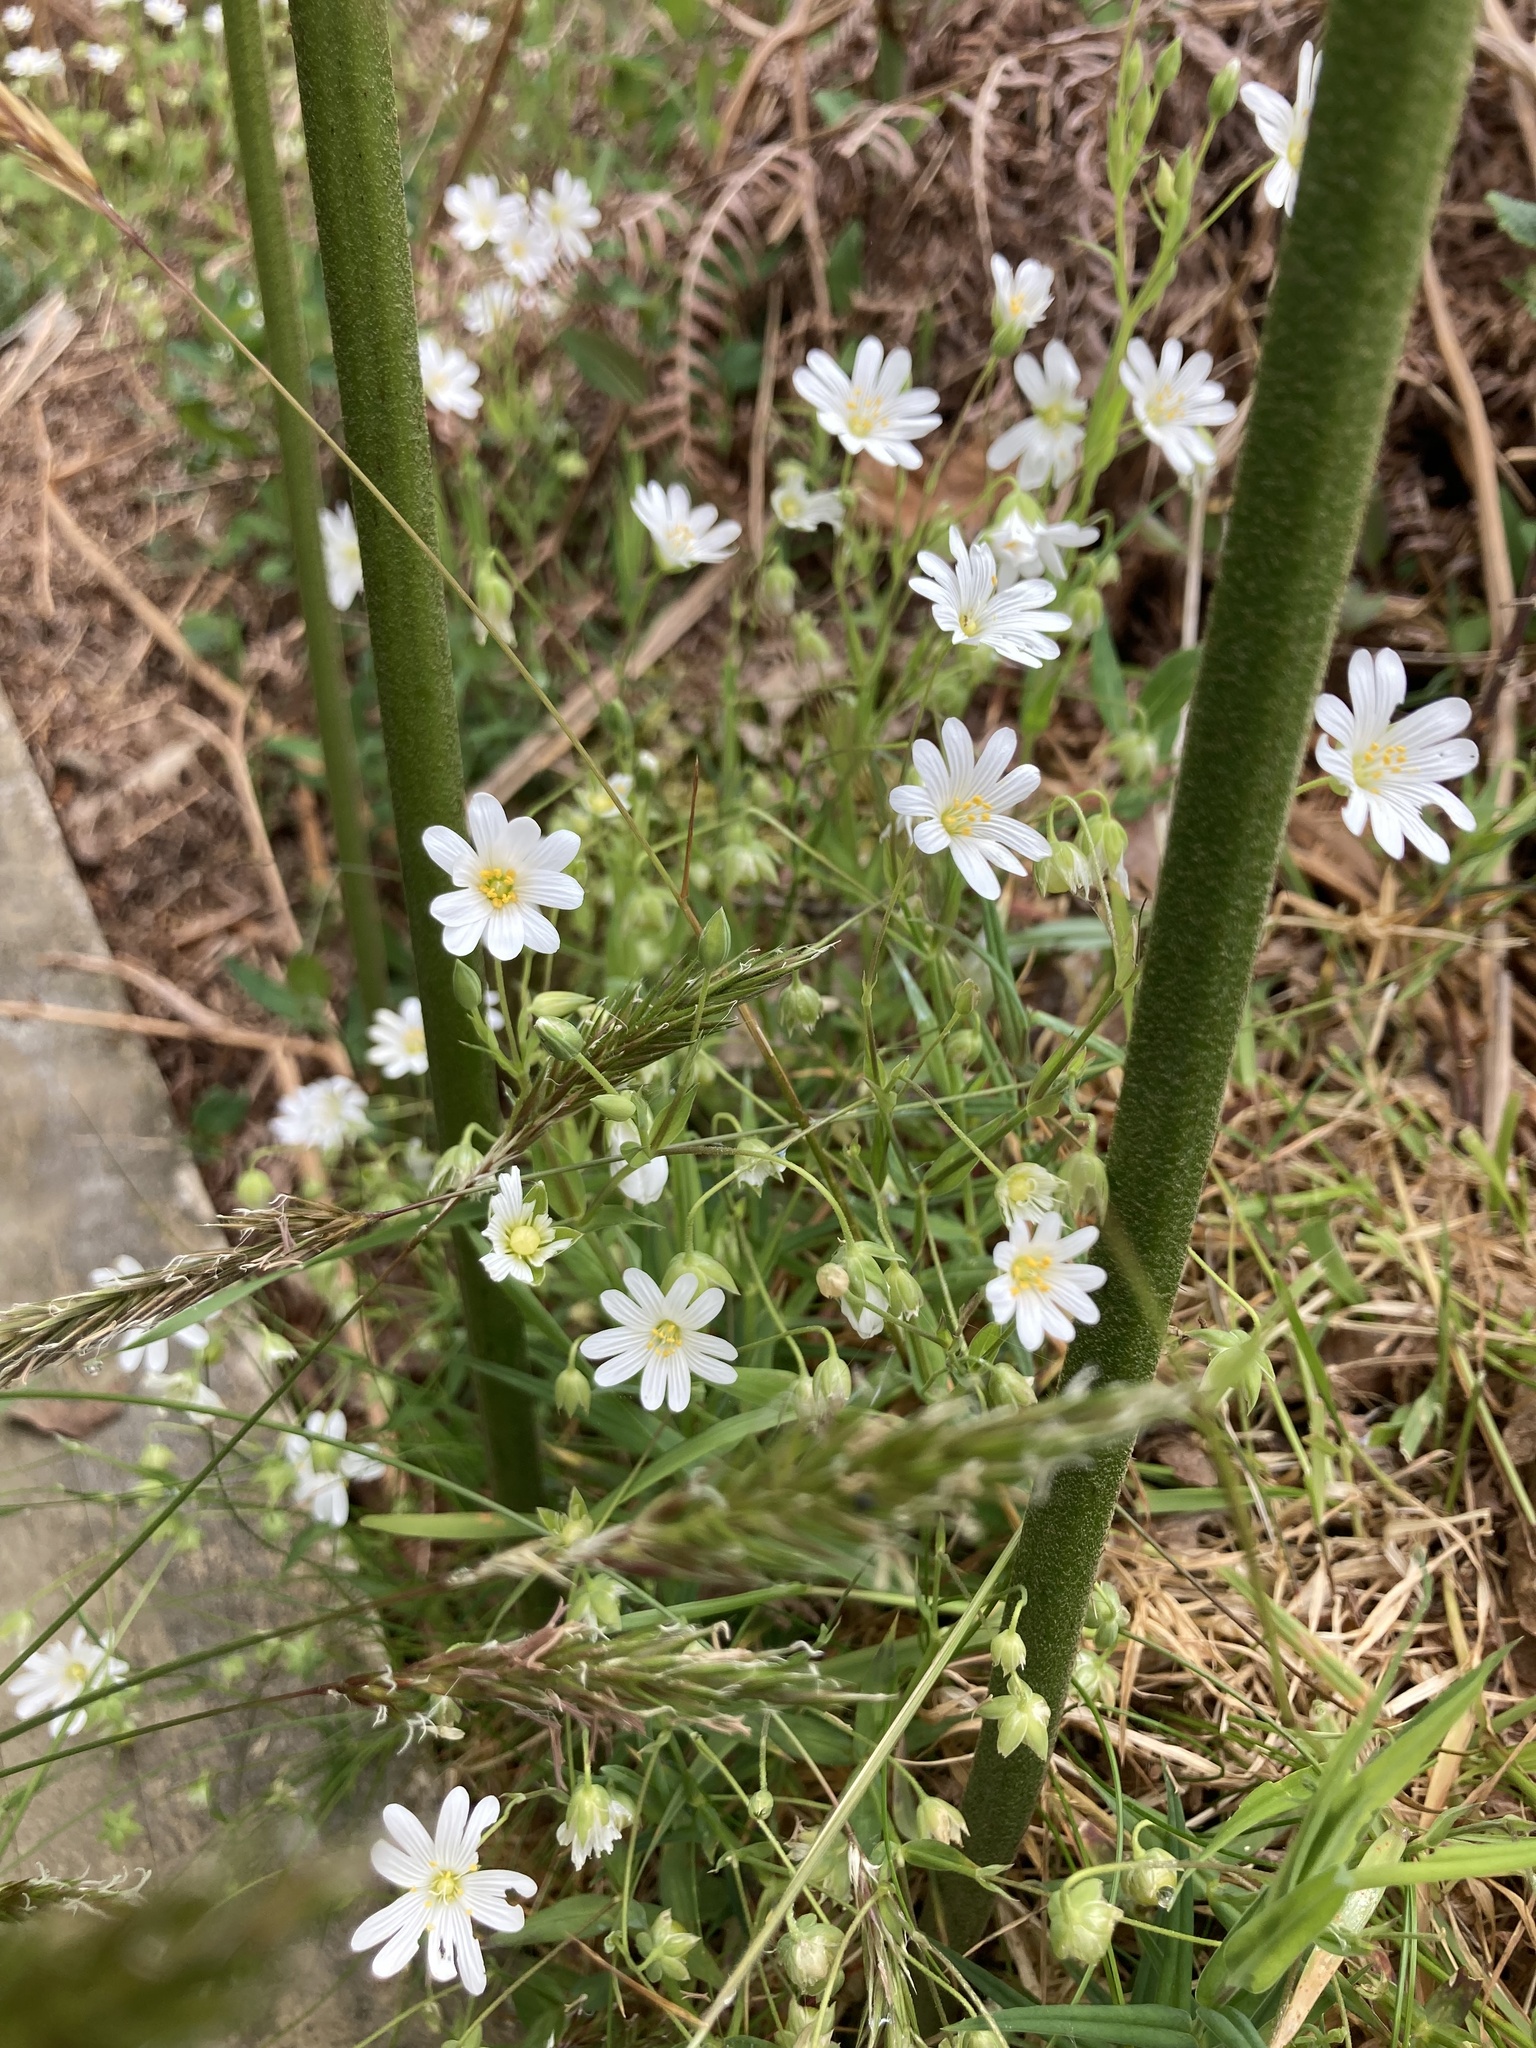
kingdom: Plantae
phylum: Tracheophyta
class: Magnoliopsida
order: Caryophyllales
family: Caryophyllaceae
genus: Rabelera
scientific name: Rabelera holostea
